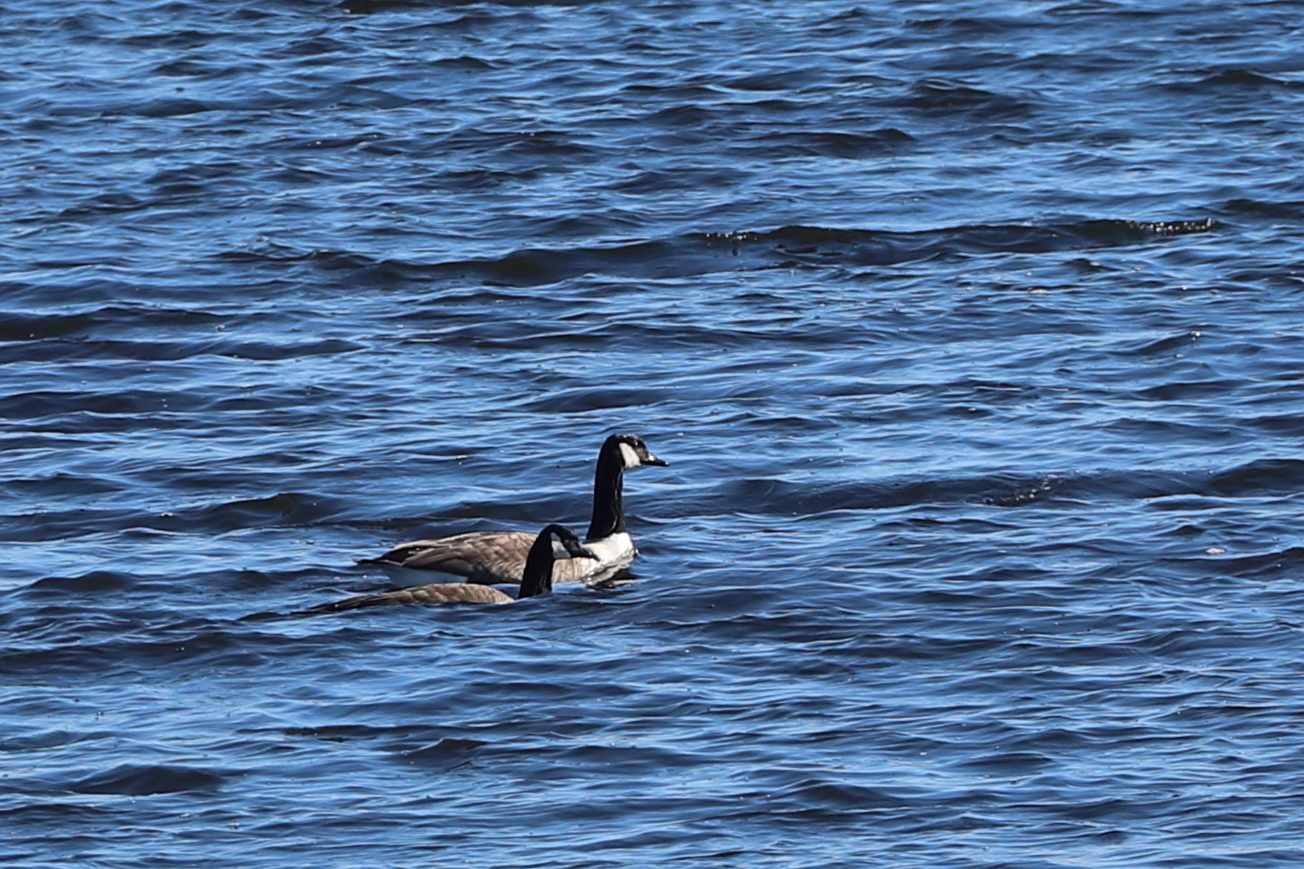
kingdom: Animalia
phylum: Chordata
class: Aves
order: Anseriformes
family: Anatidae
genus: Branta
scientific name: Branta canadensis
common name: Canada goose
